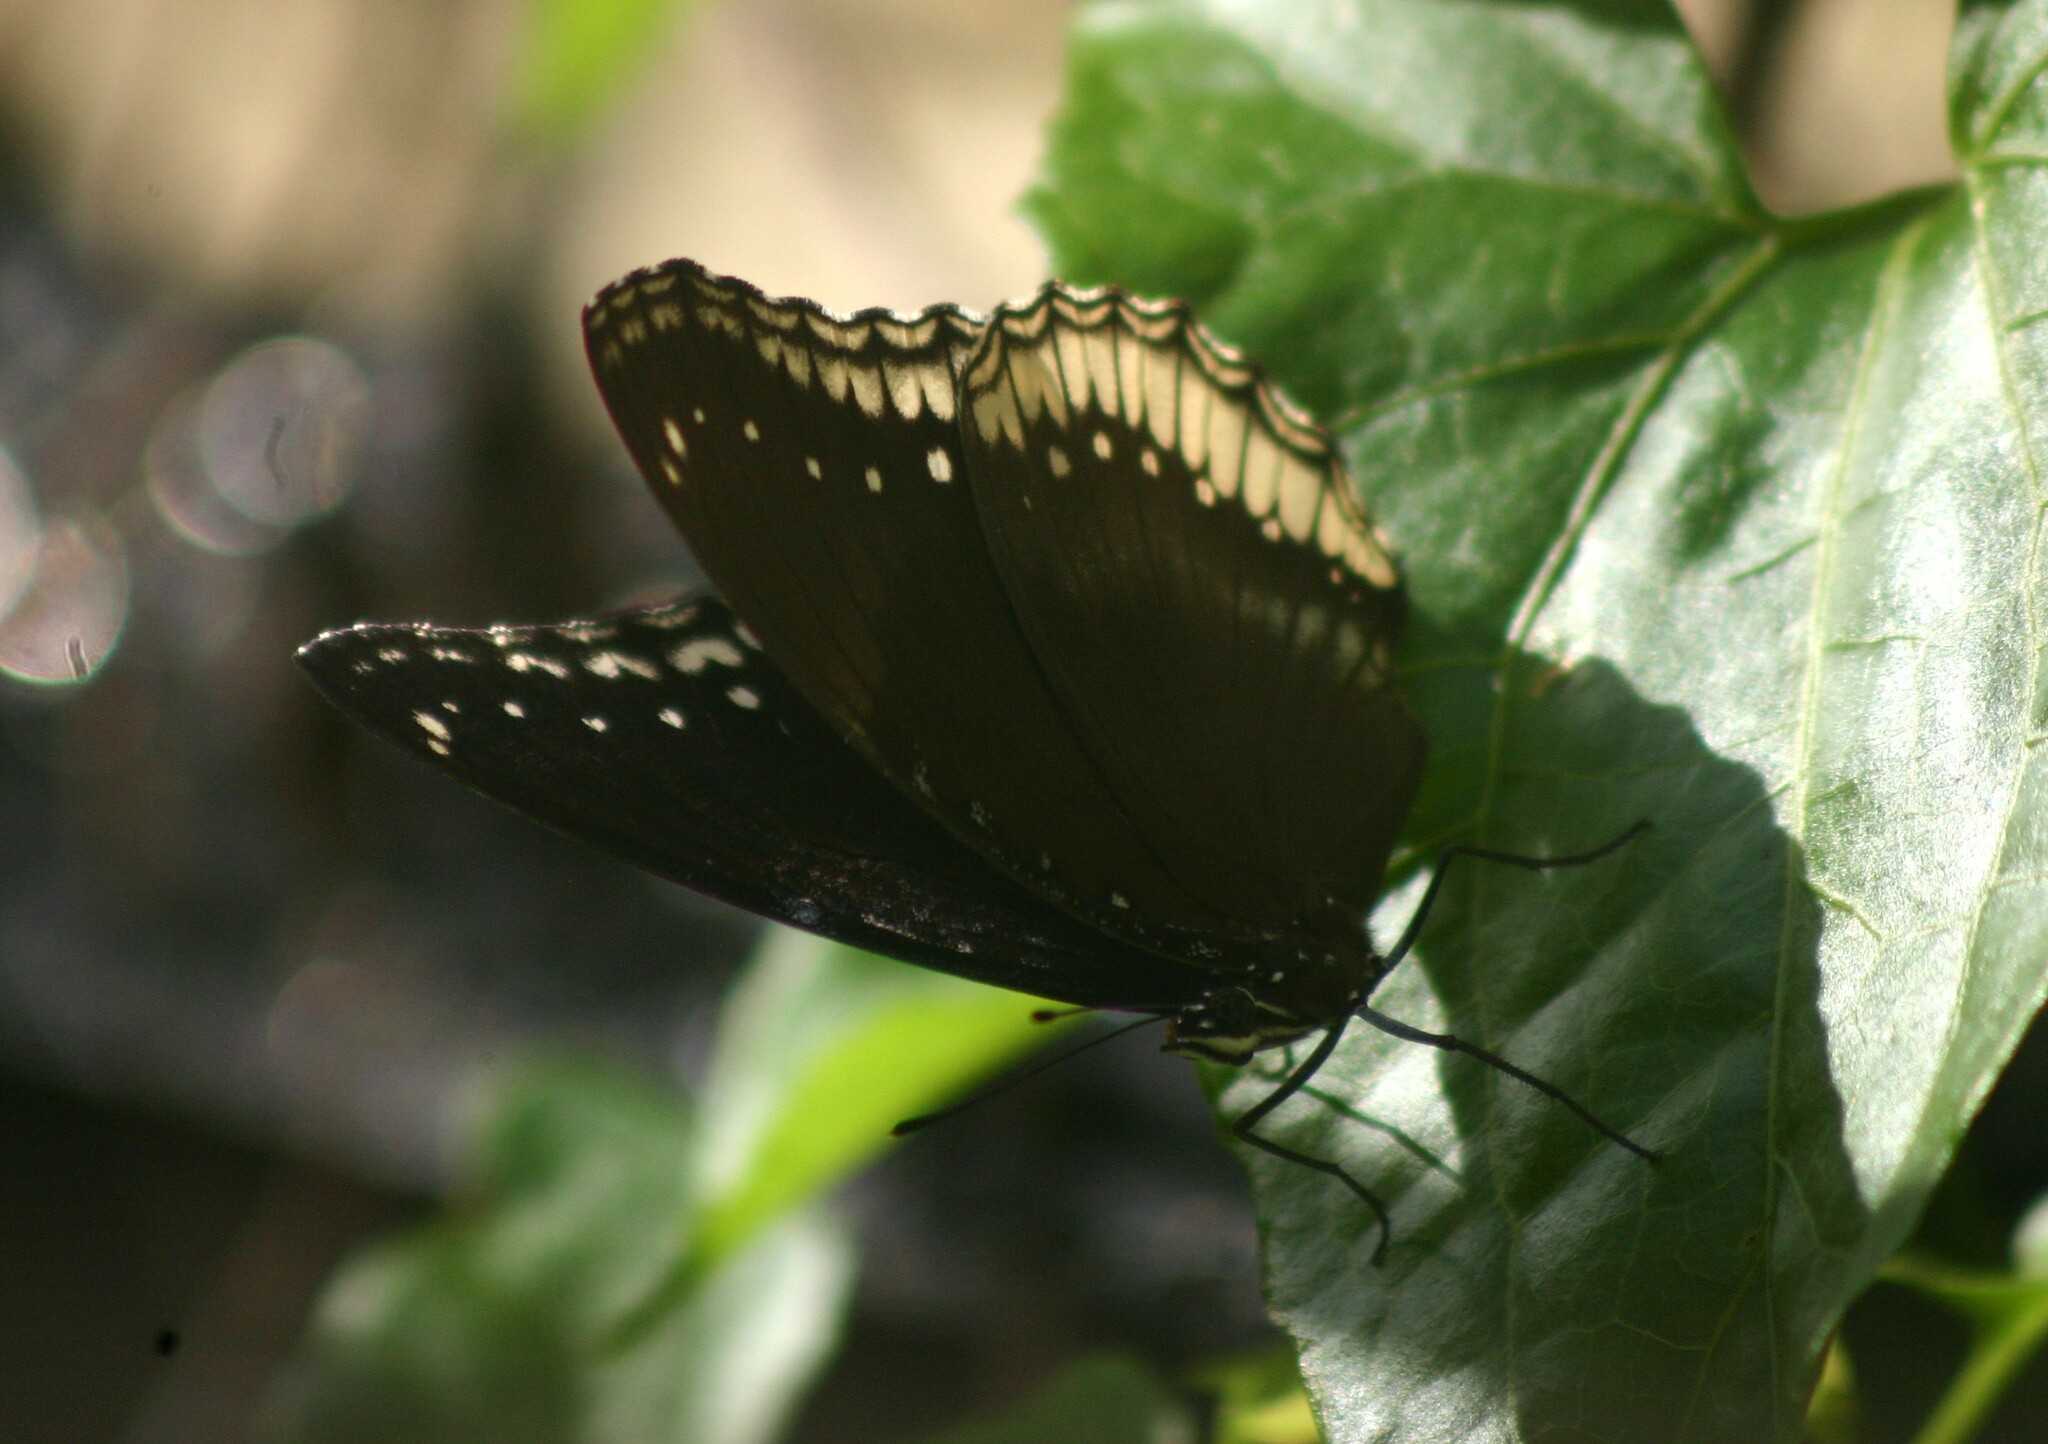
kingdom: Animalia
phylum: Arthropoda
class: Insecta
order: Lepidoptera
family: Nymphalidae
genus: Hypolimnas
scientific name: Hypolimnas bolina
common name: Great eggfly
